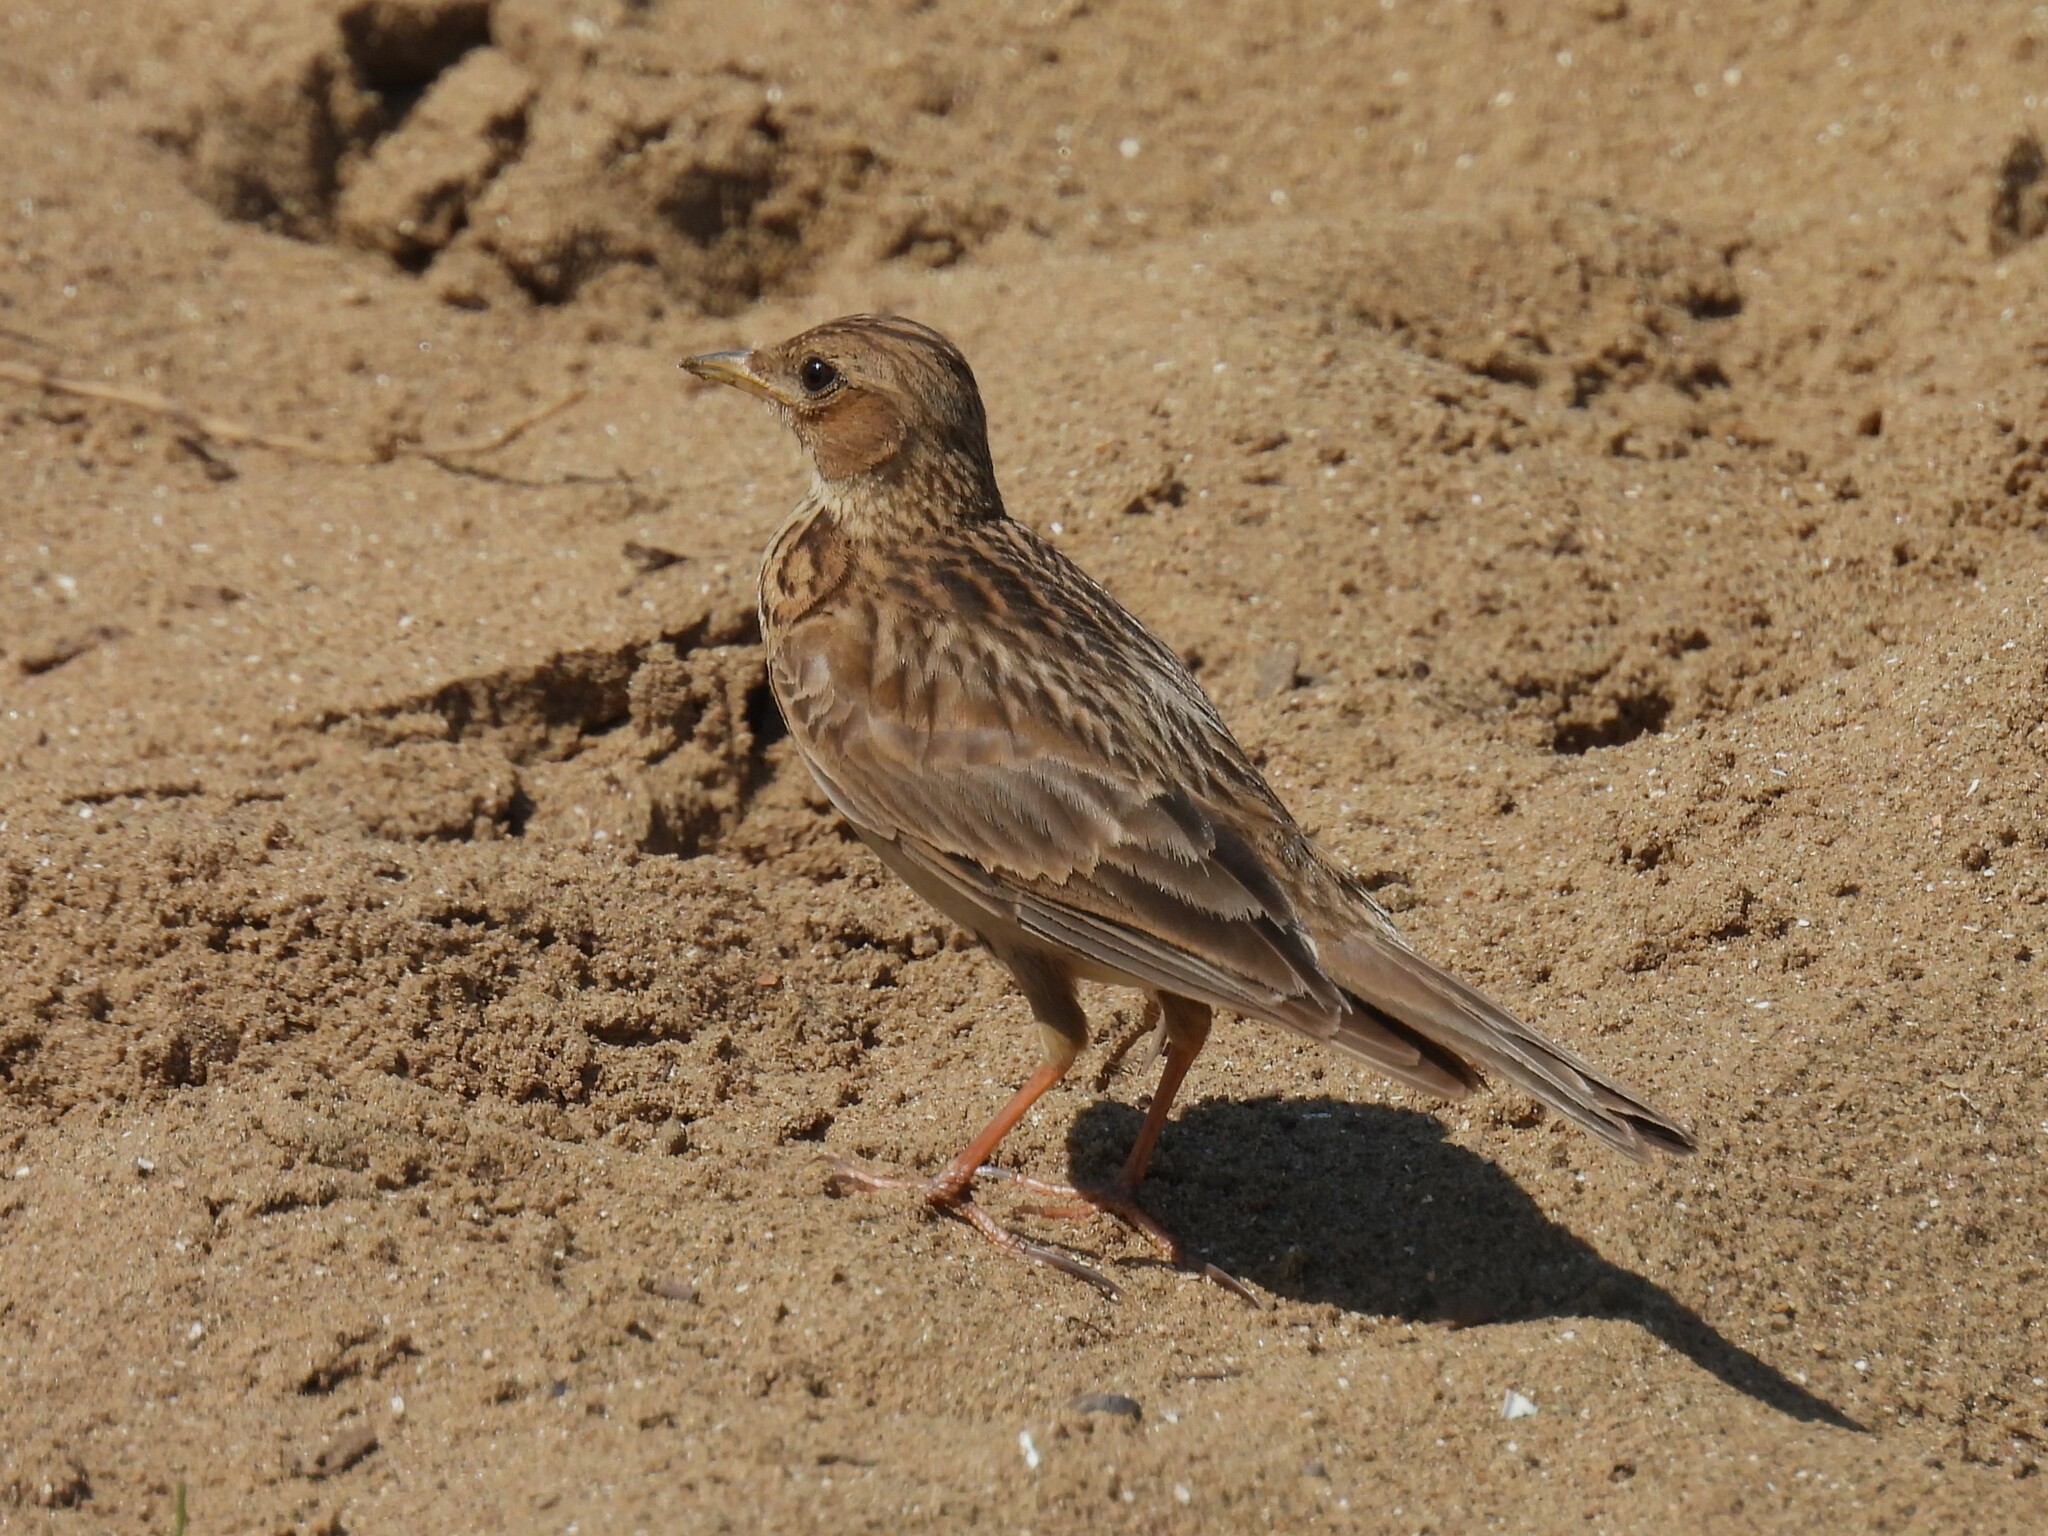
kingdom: Animalia
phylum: Chordata
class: Aves
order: Passeriformes
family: Alaudidae
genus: Alauda
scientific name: Alauda arvensis
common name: Eurasian skylark
